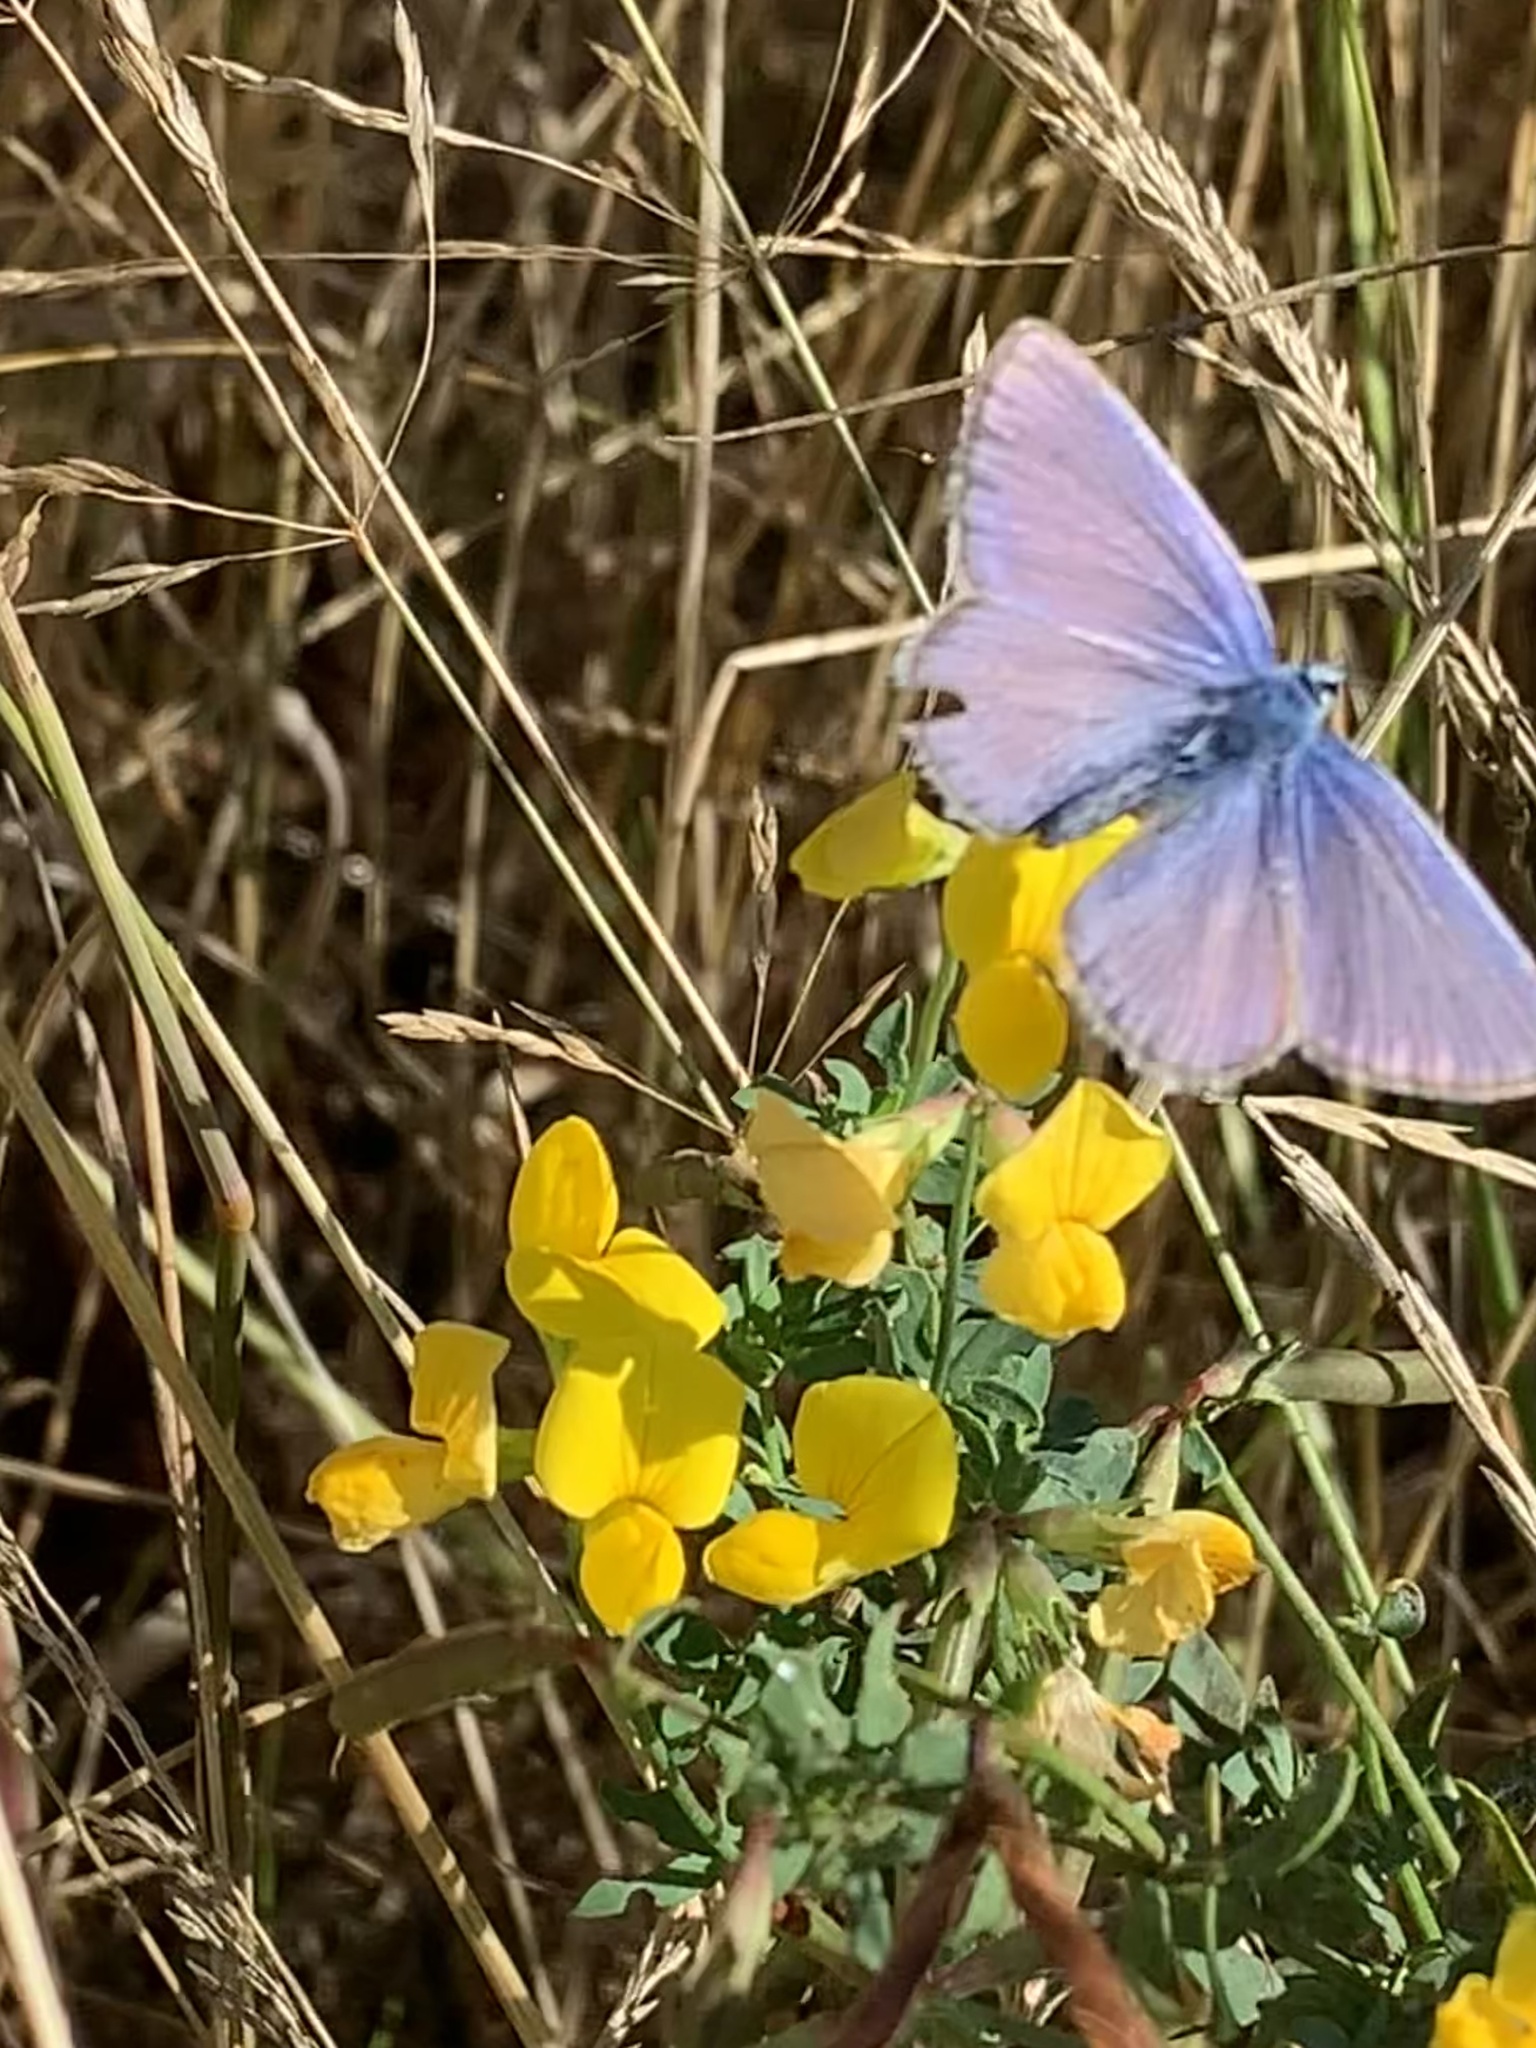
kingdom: Animalia
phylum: Arthropoda
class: Insecta
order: Lepidoptera
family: Lycaenidae
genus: Polyommatus
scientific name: Polyommatus icarus
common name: Common blue
